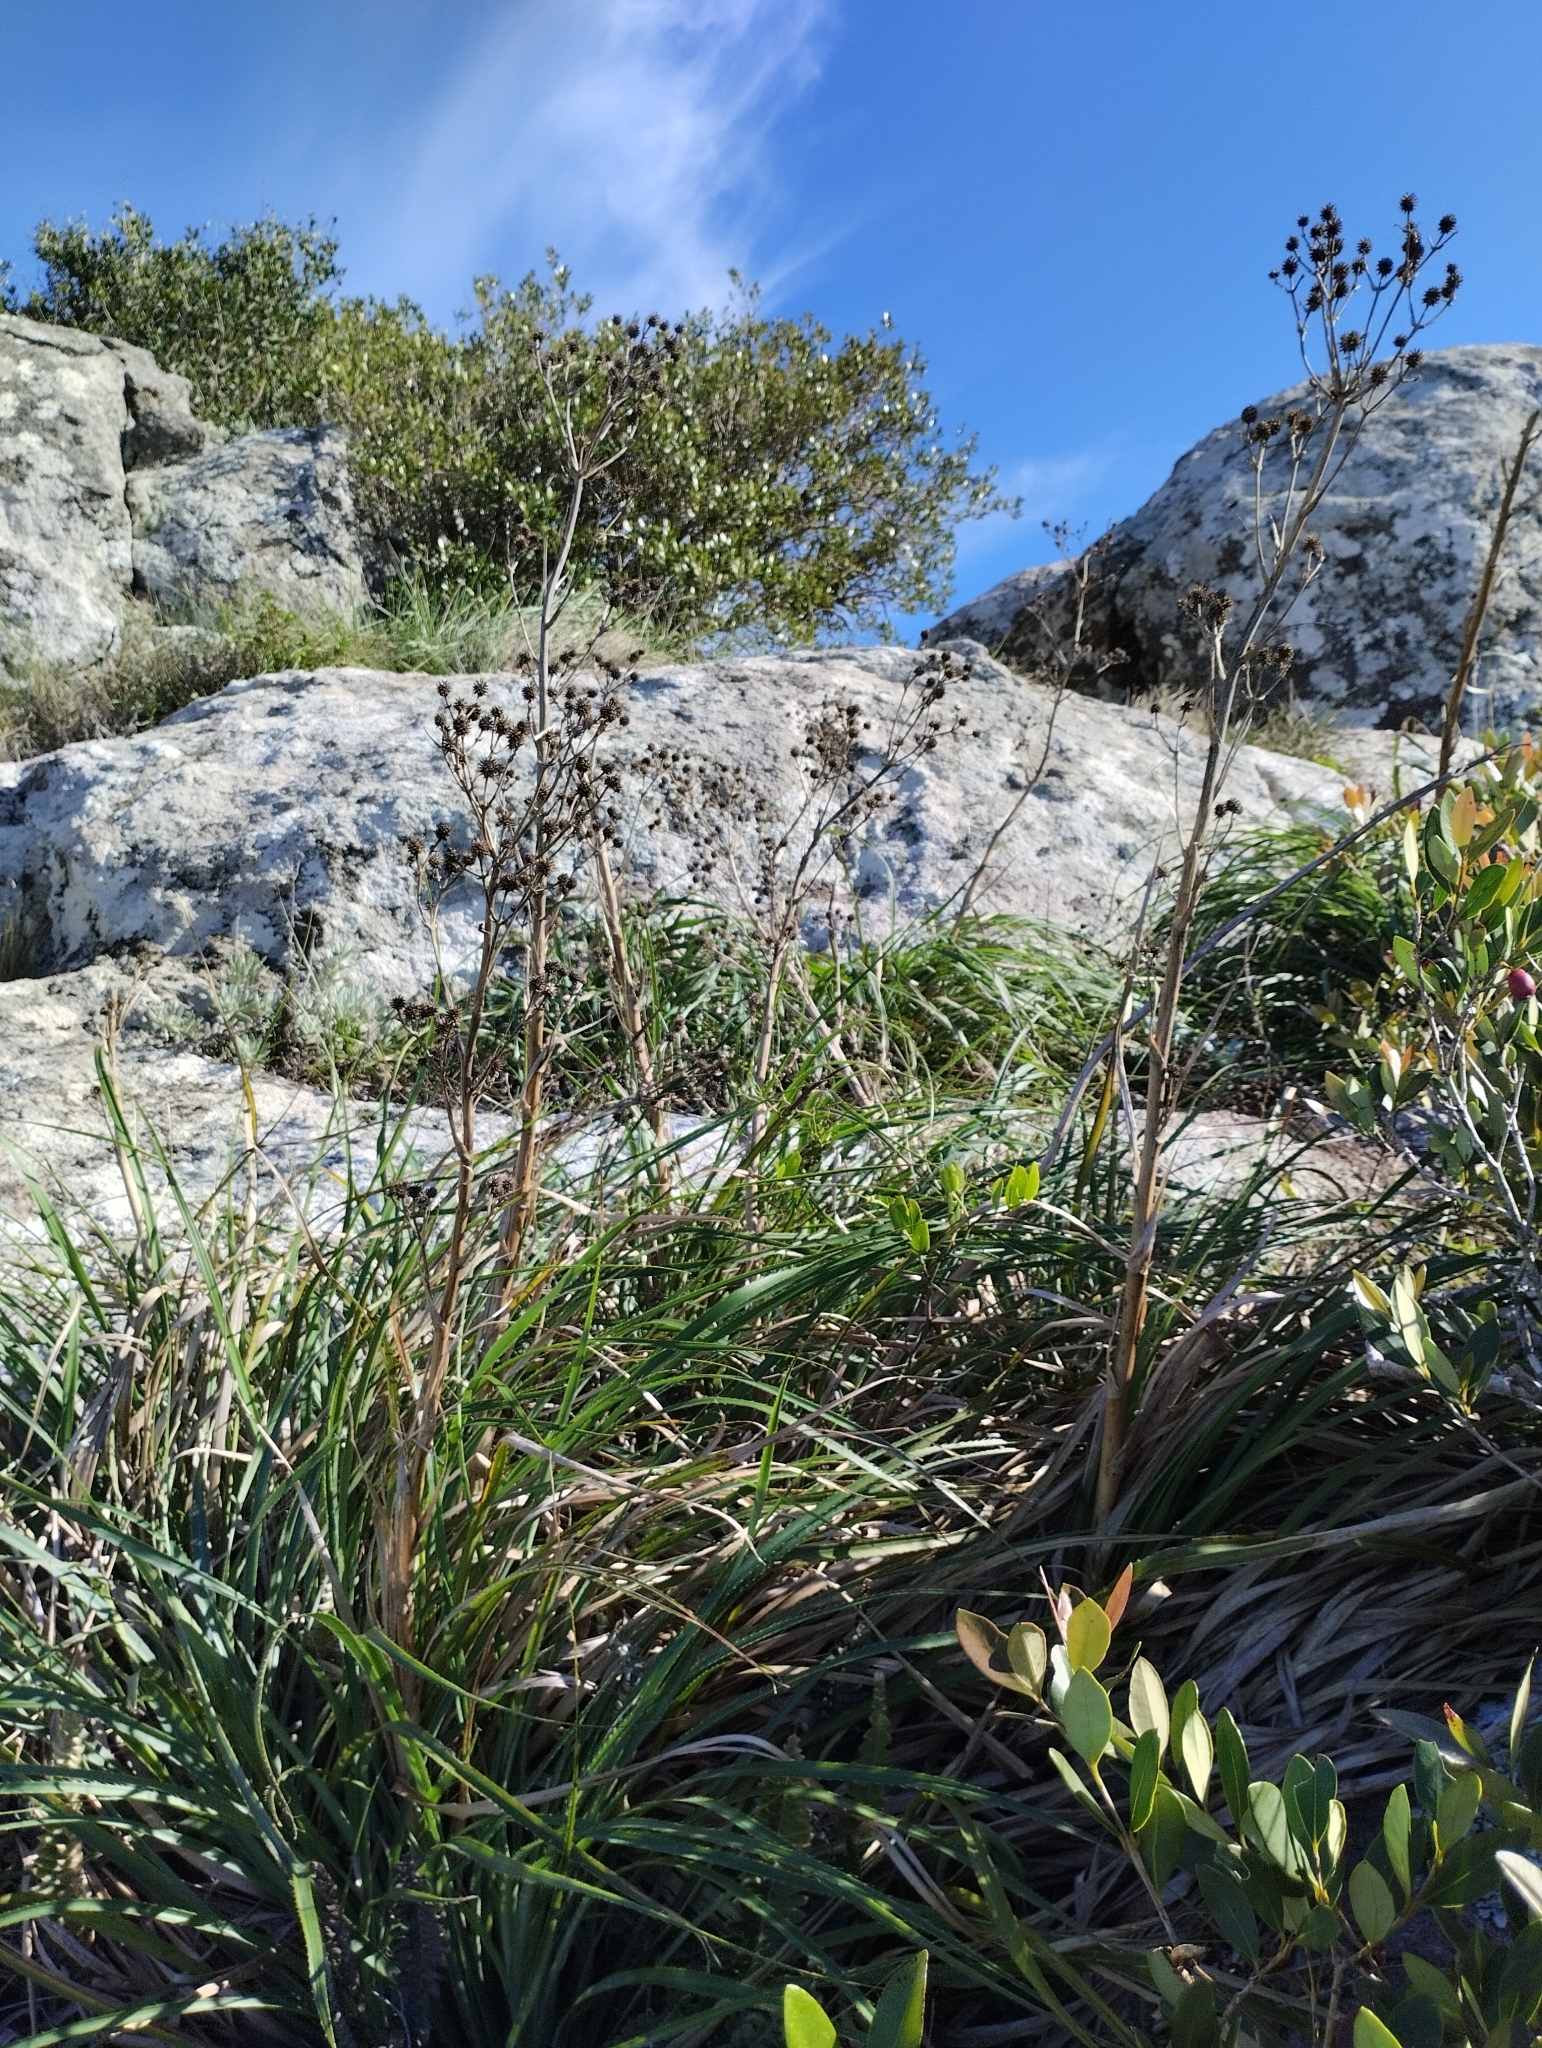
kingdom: Plantae
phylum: Tracheophyta
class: Magnoliopsida
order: Apiales
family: Apiaceae
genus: Eryngium
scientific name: Eryngium regnellii
